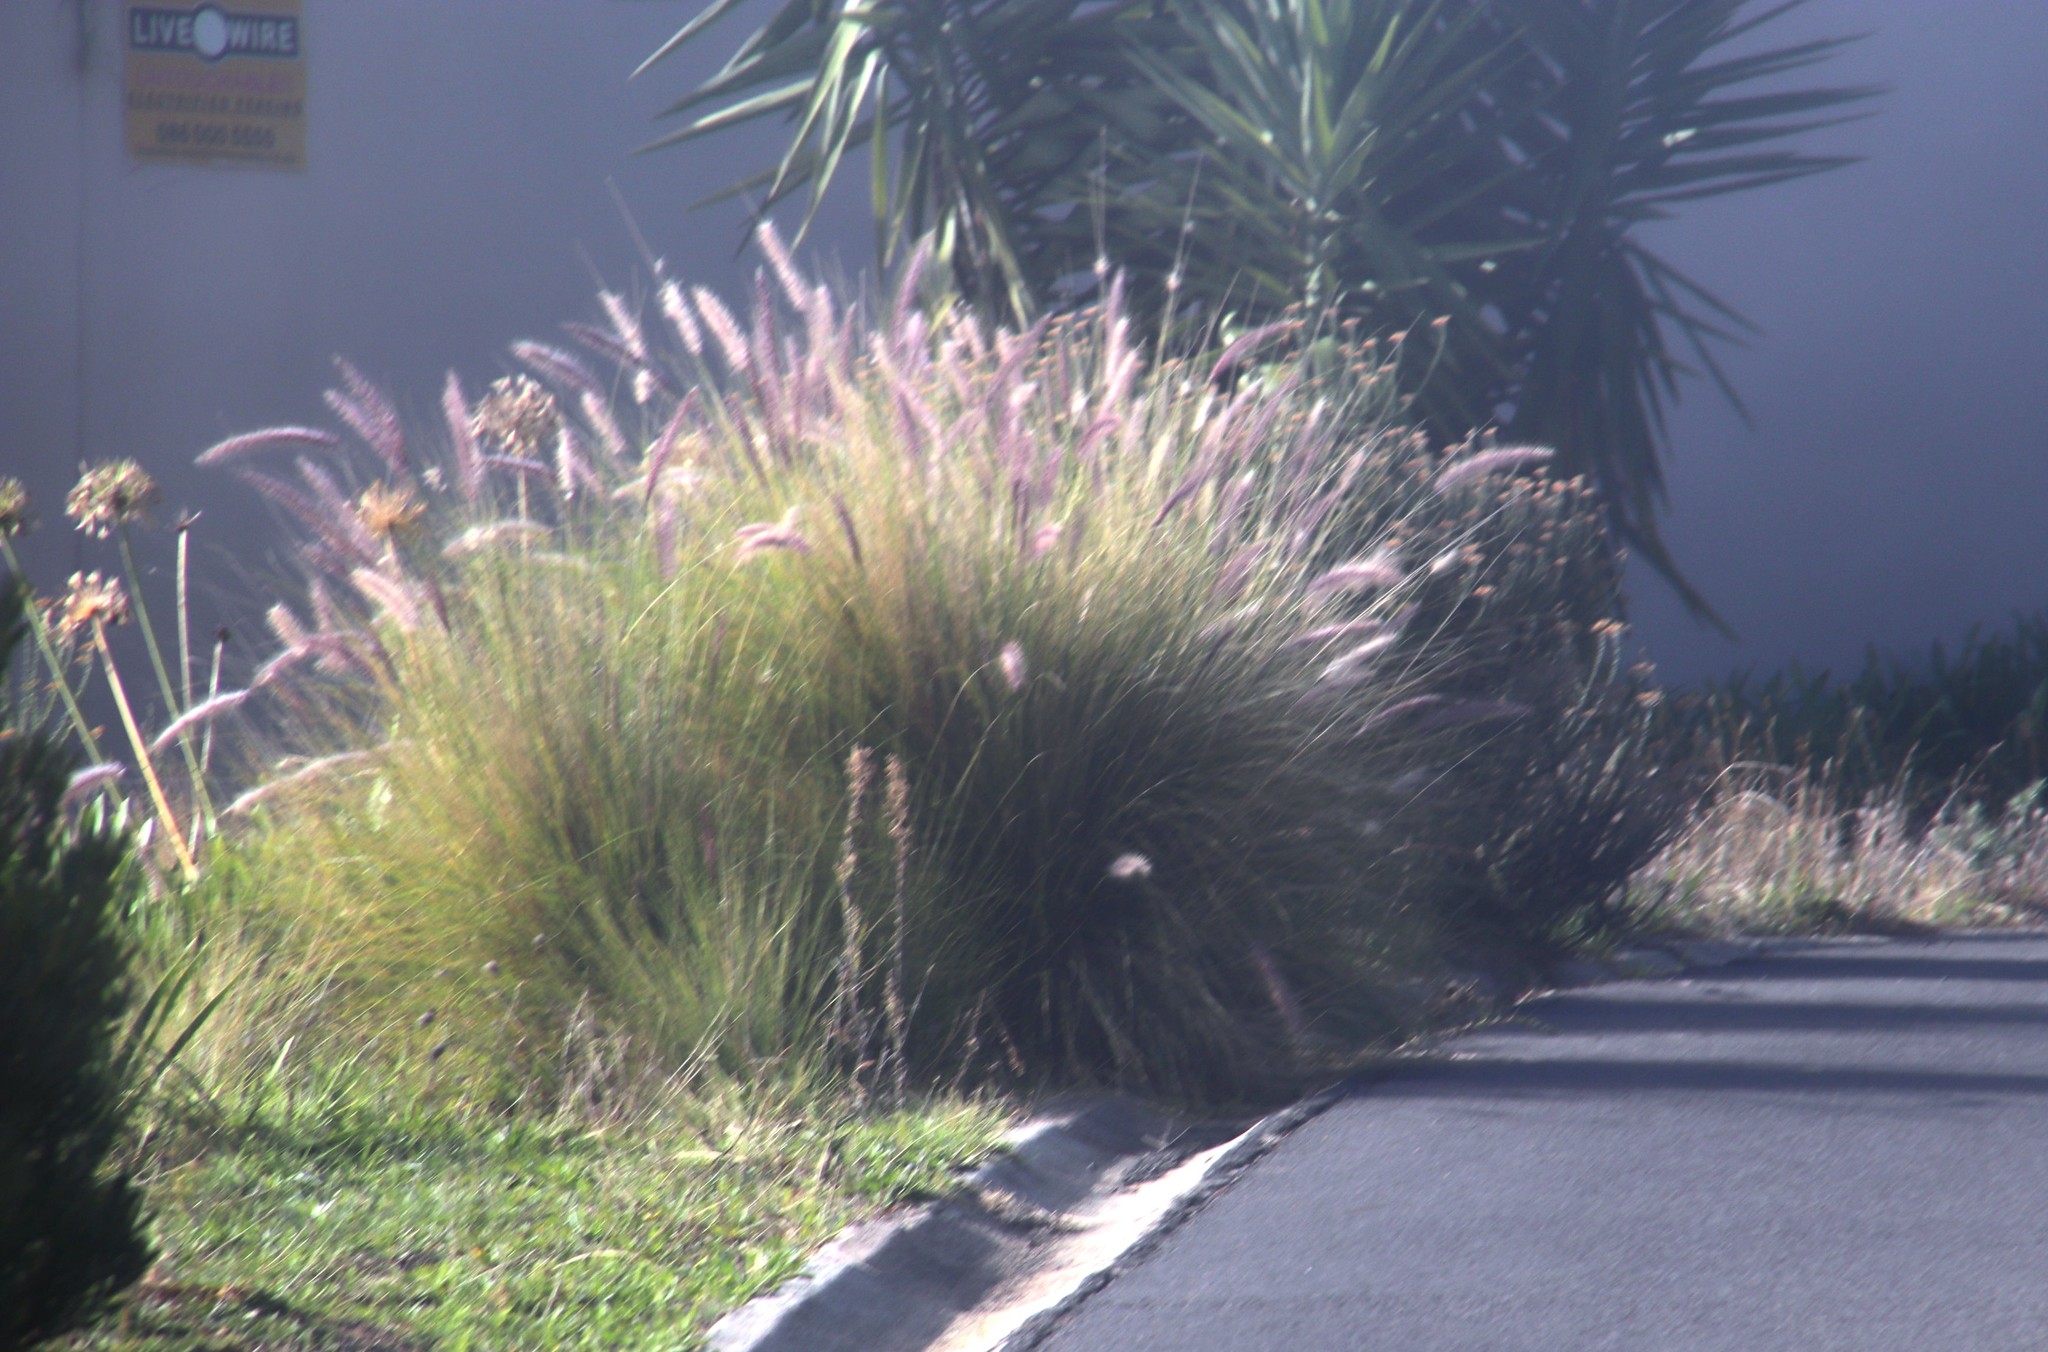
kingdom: Plantae
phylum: Tracheophyta
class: Liliopsida
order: Poales
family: Poaceae
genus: Cenchrus
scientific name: Cenchrus setaceus
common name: Crimson fountaingrass
